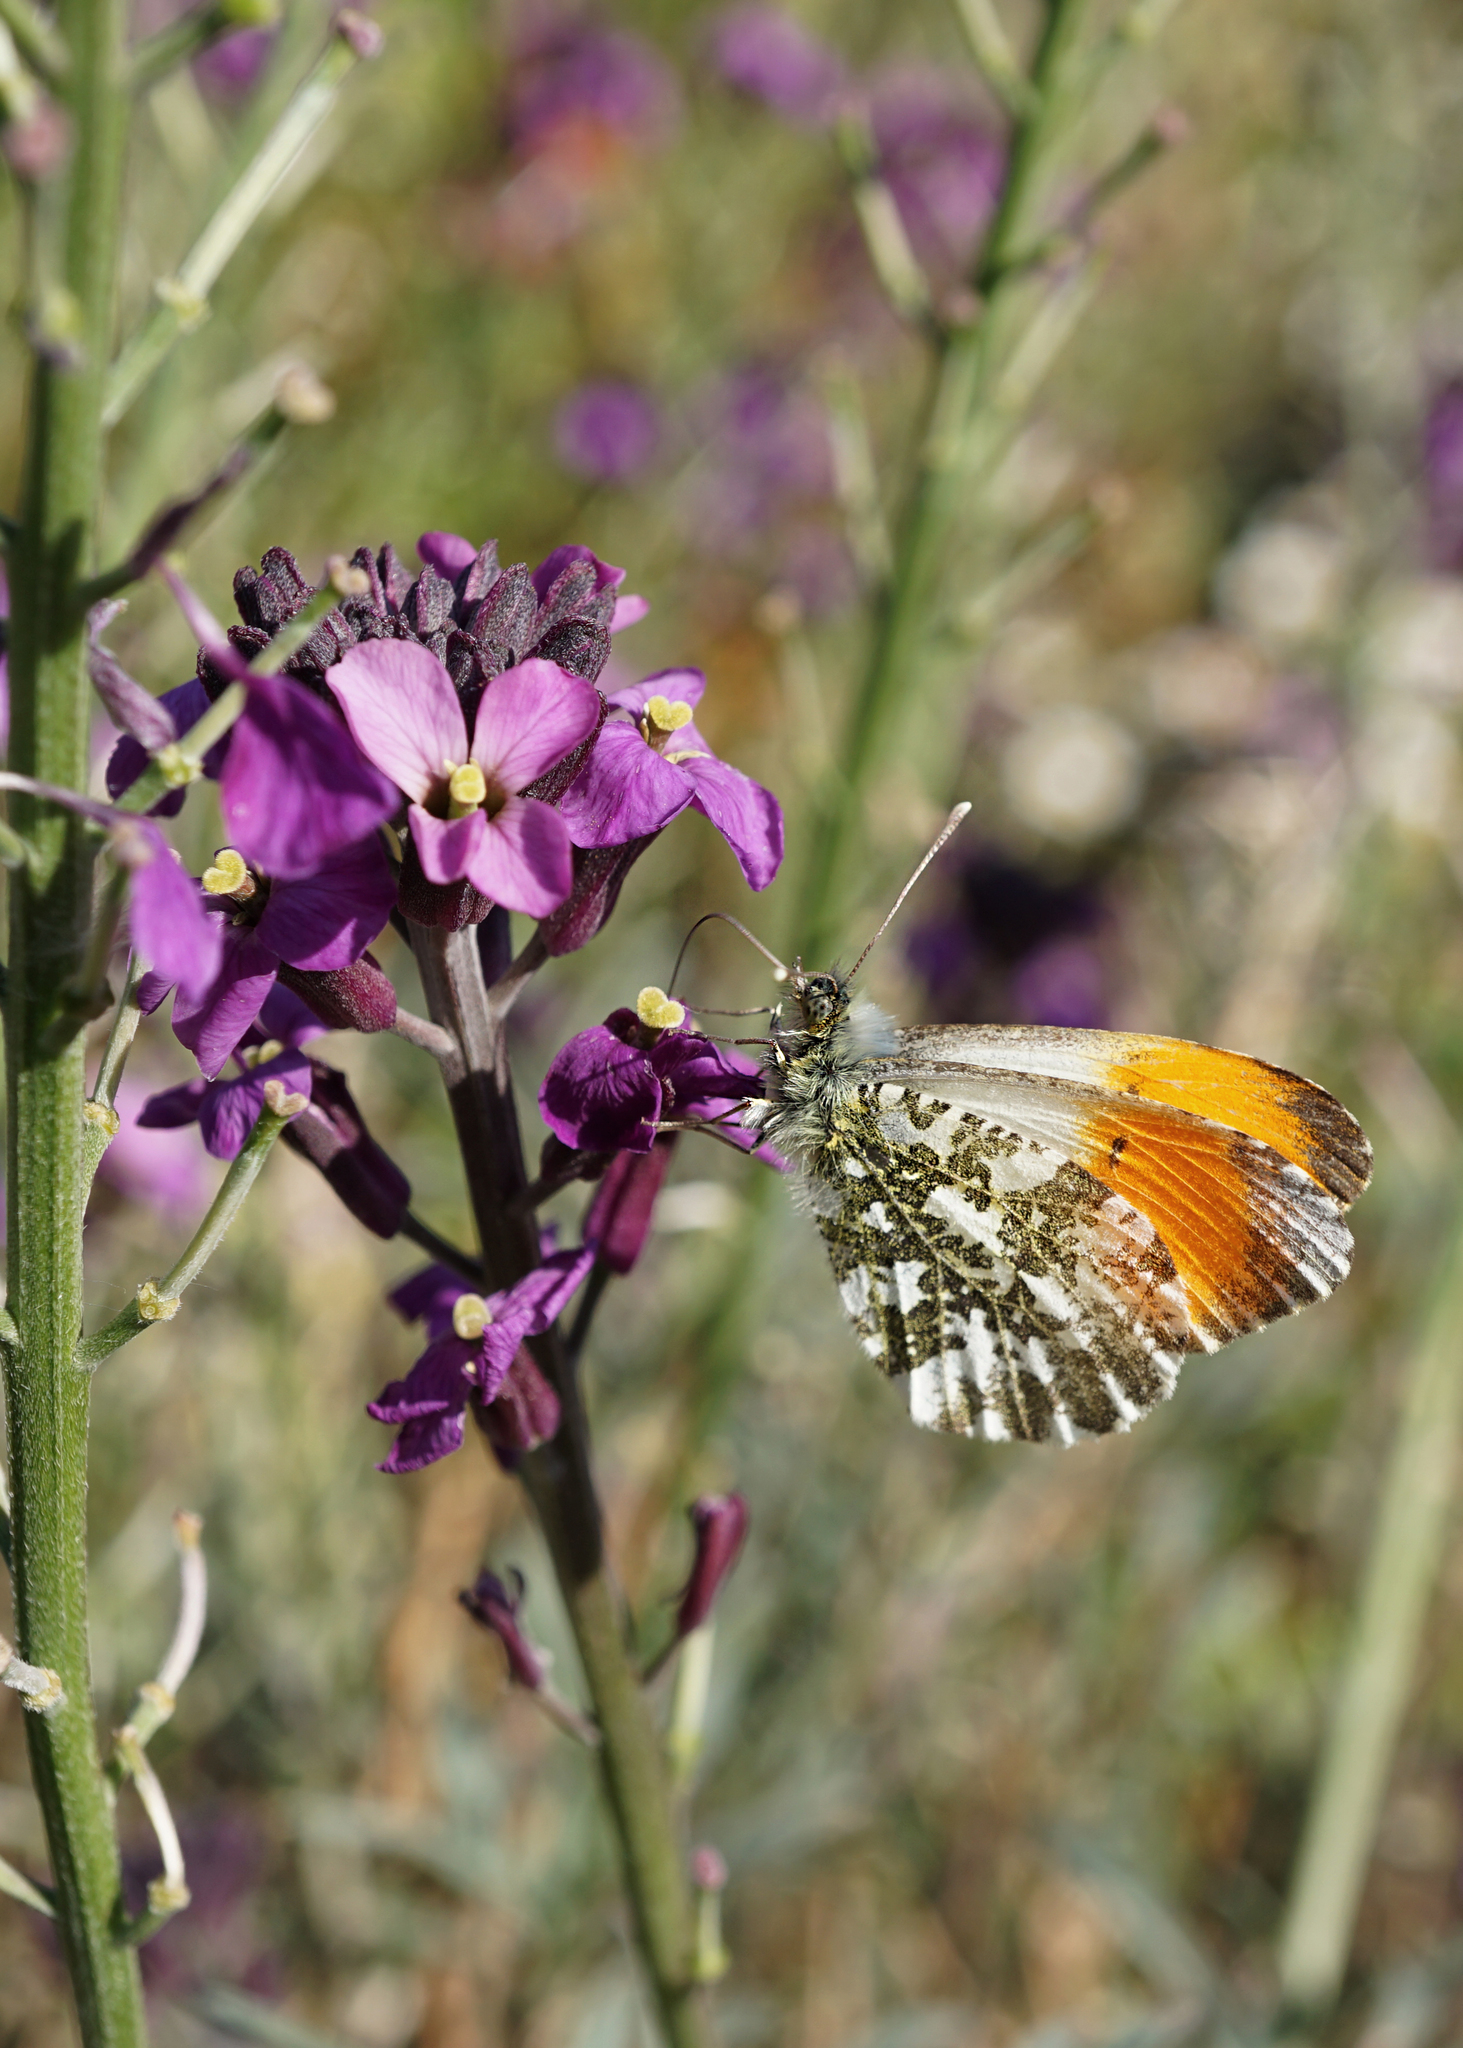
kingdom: Animalia
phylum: Arthropoda
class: Insecta
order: Lepidoptera
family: Pieridae
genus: Anthocharis
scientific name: Anthocharis cardamines
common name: Orange-tip
